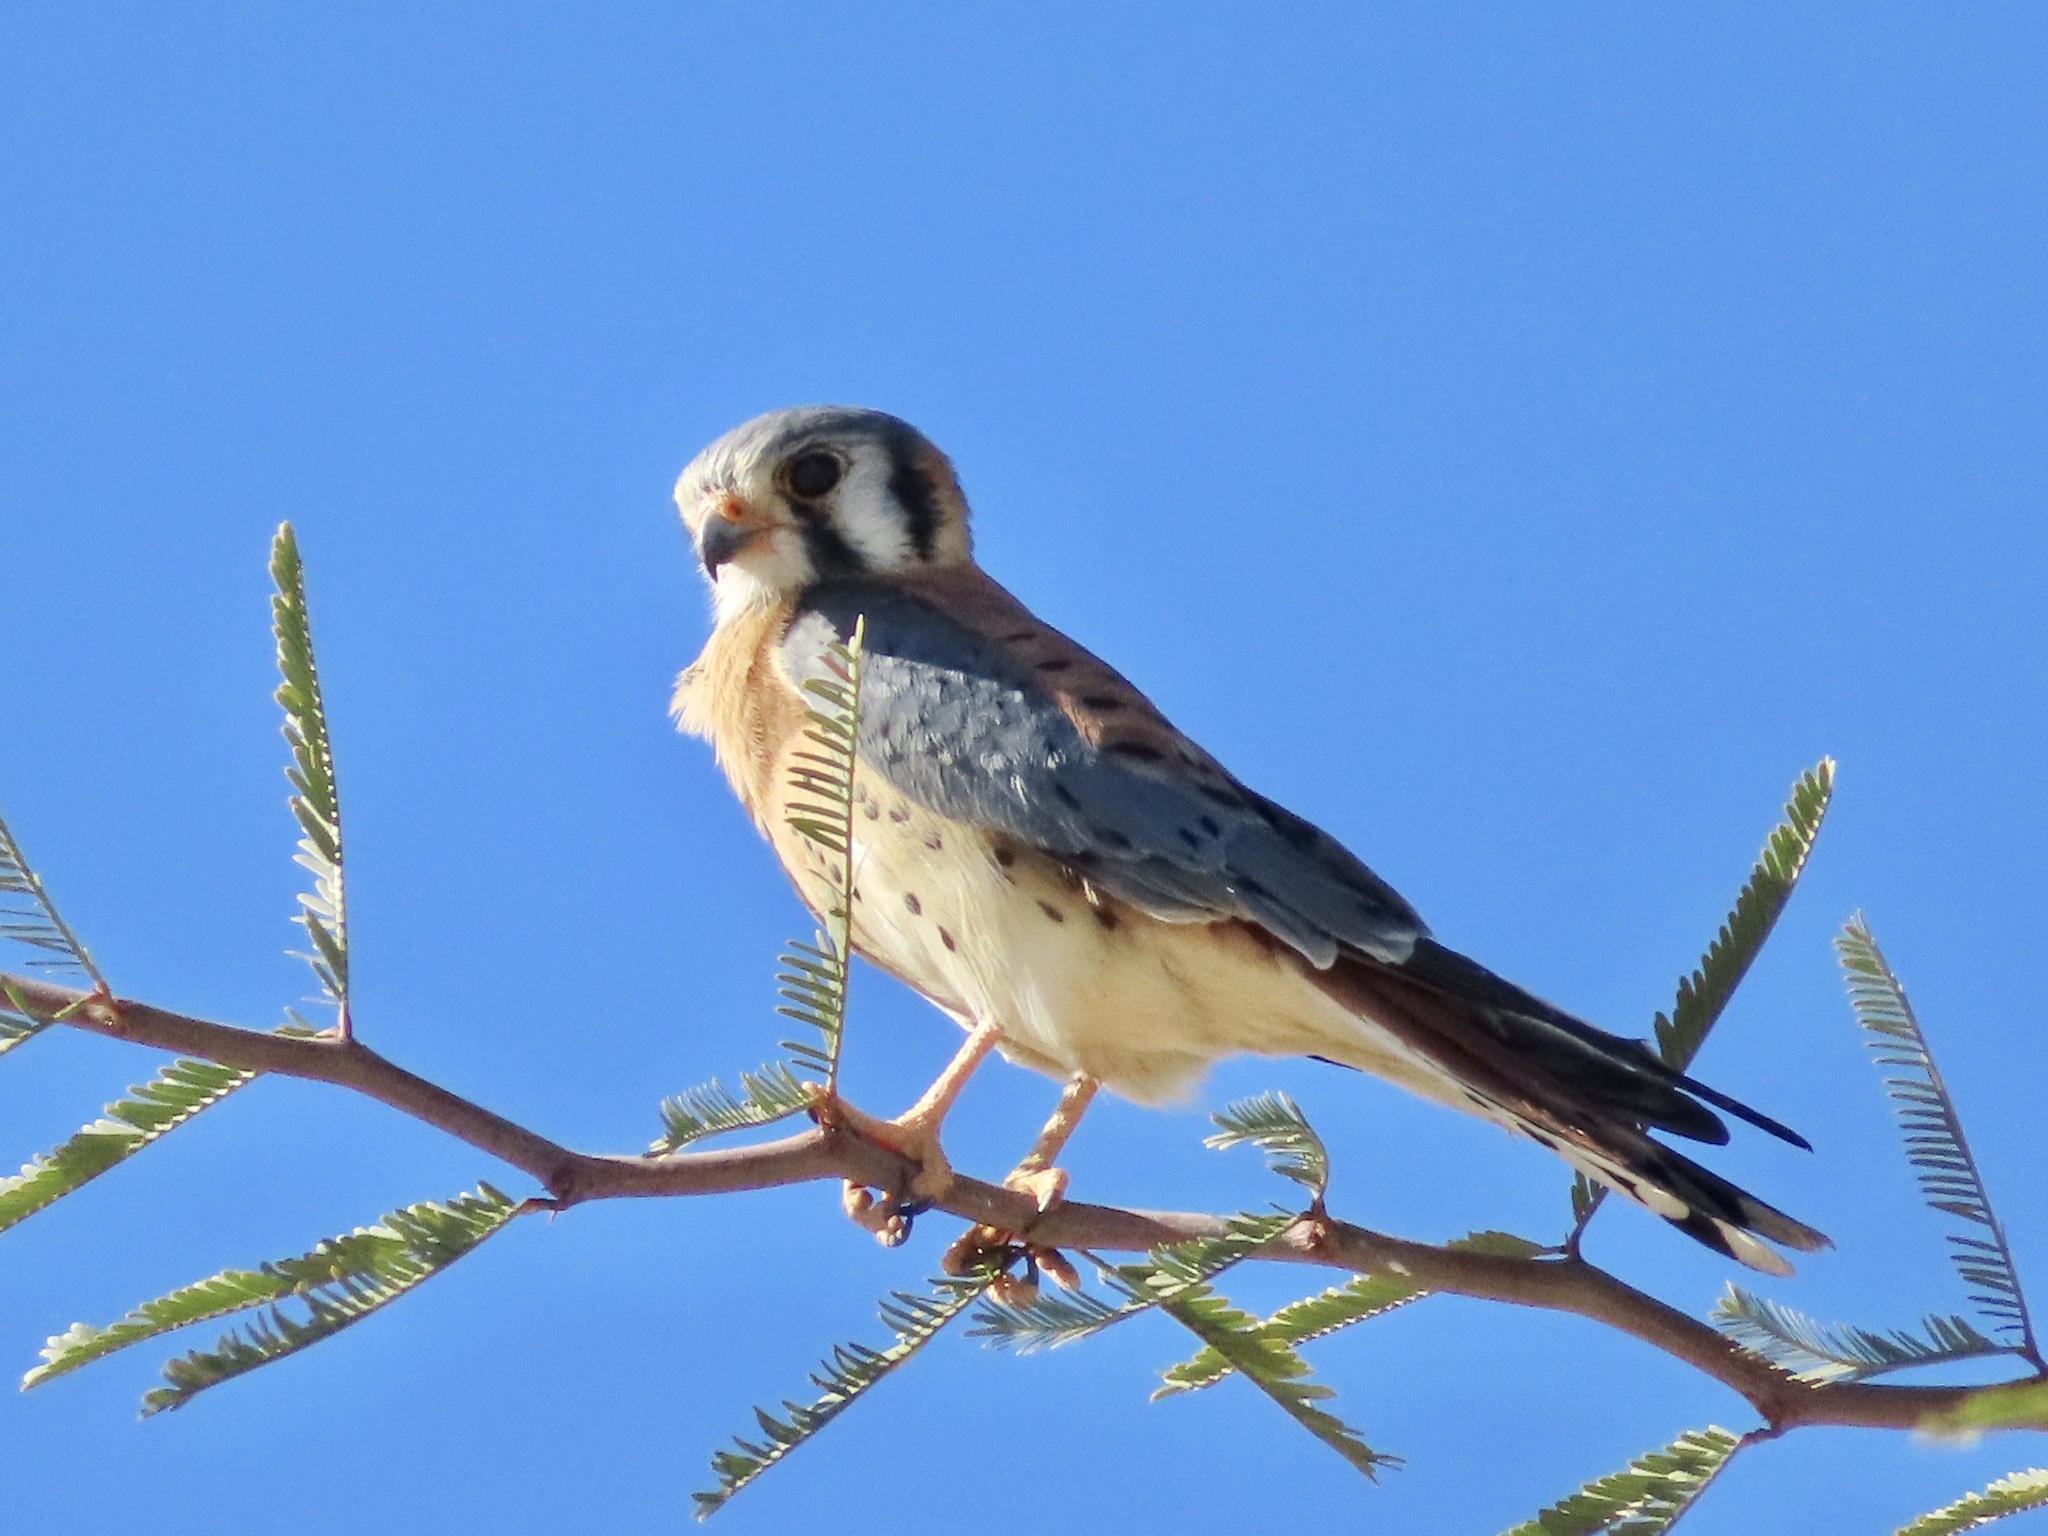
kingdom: Animalia
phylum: Chordata
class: Aves
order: Falconiformes
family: Falconidae
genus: Falco
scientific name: Falco sparverius
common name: American kestrel
